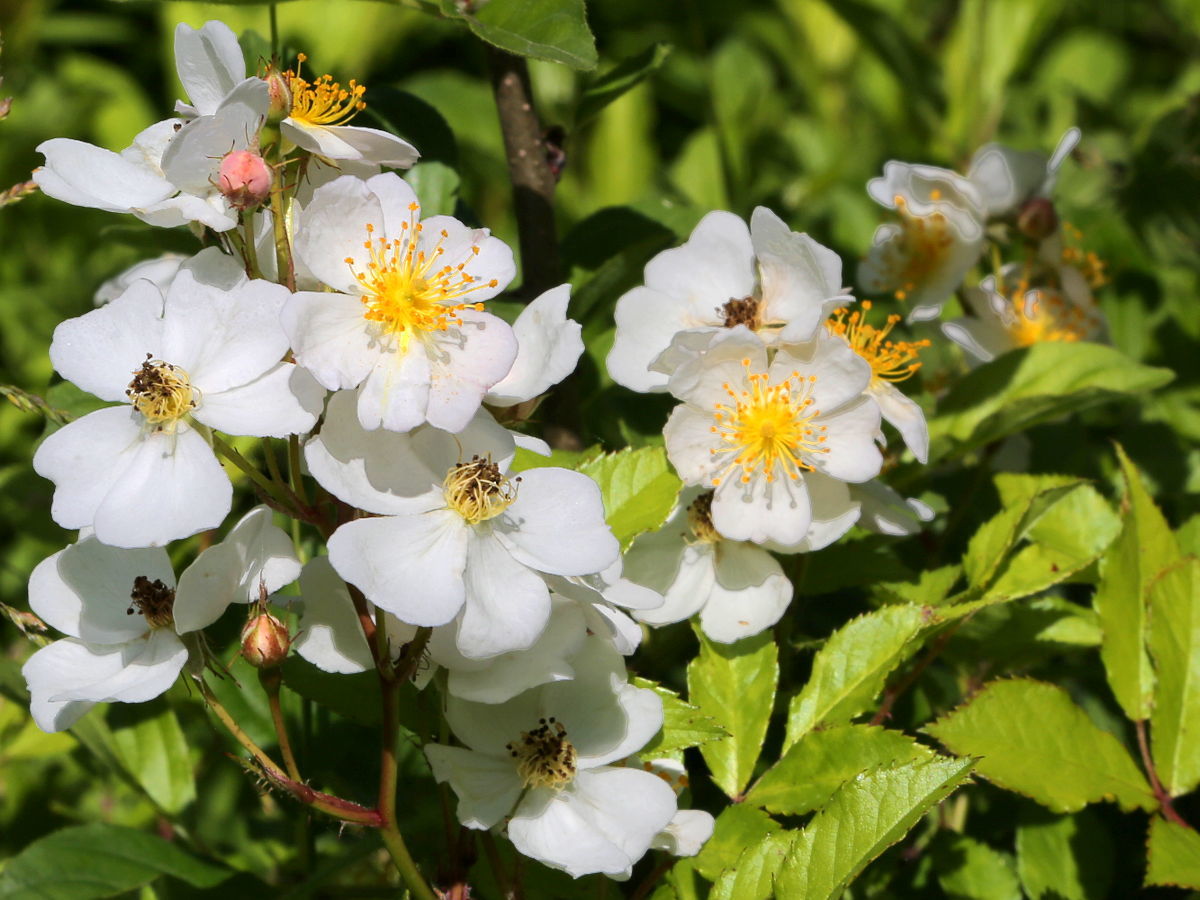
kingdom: Plantae
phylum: Tracheophyta
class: Magnoliopsida
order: Rosales
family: Rosaceae
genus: Rosa
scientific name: Rosa multiflora
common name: Multiflora rose
